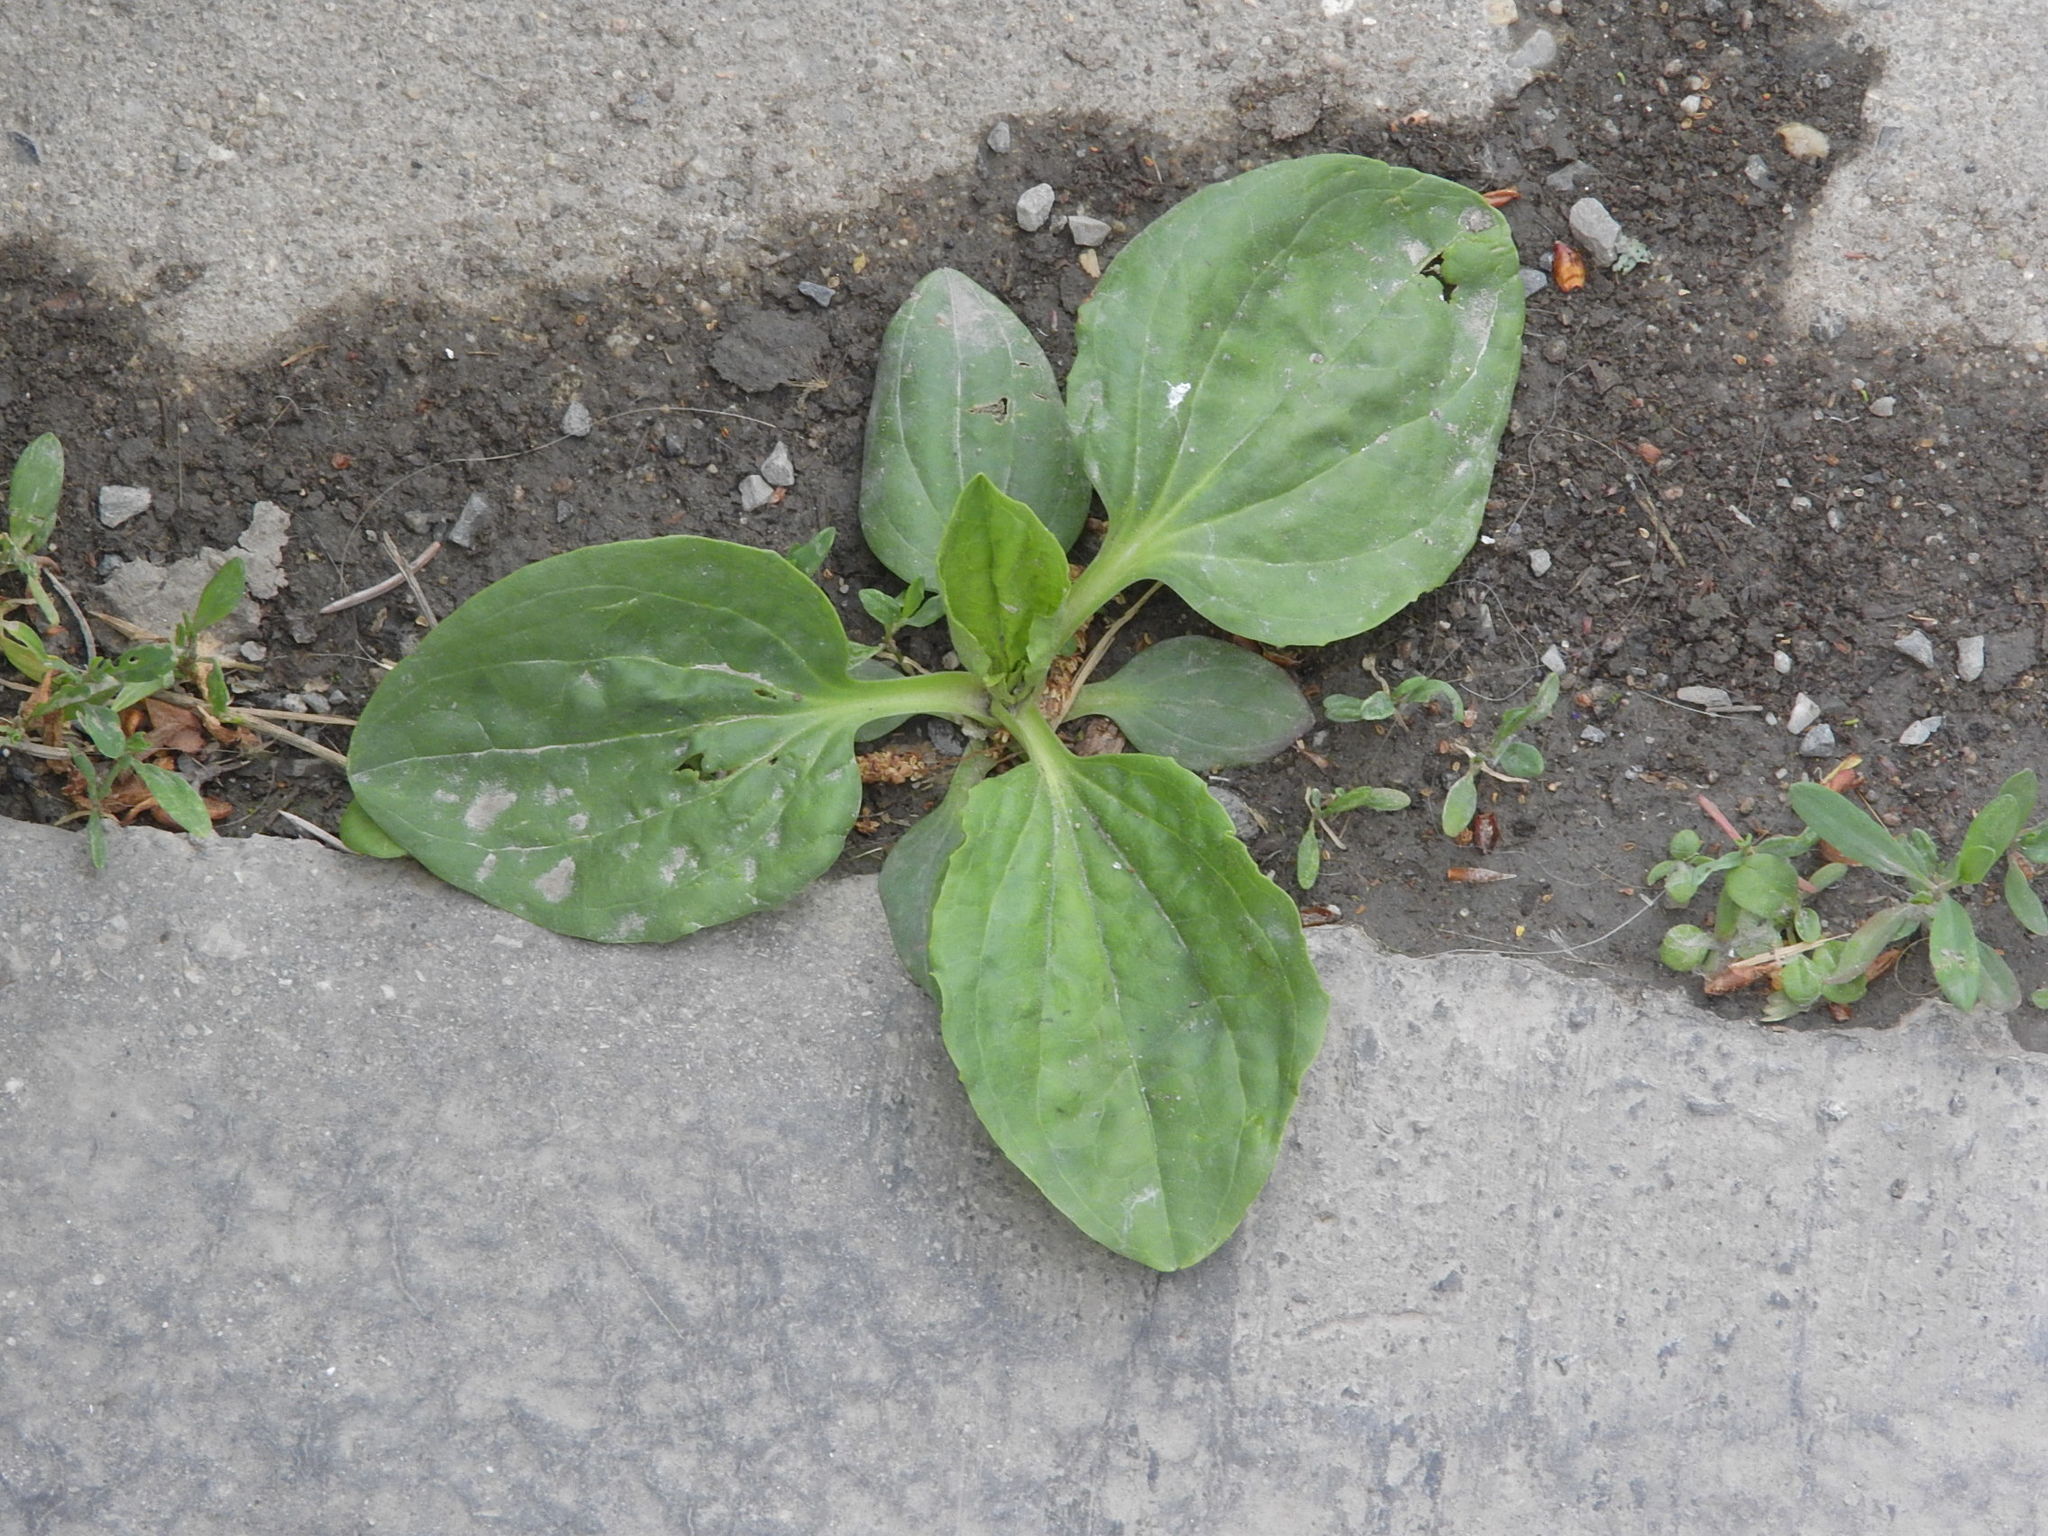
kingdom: Plantae
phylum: Tracheophyta
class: Magnoliopsida
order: Lamiales
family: Plantaginaceae
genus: Plantago
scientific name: Plantago major
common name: Common plantain
